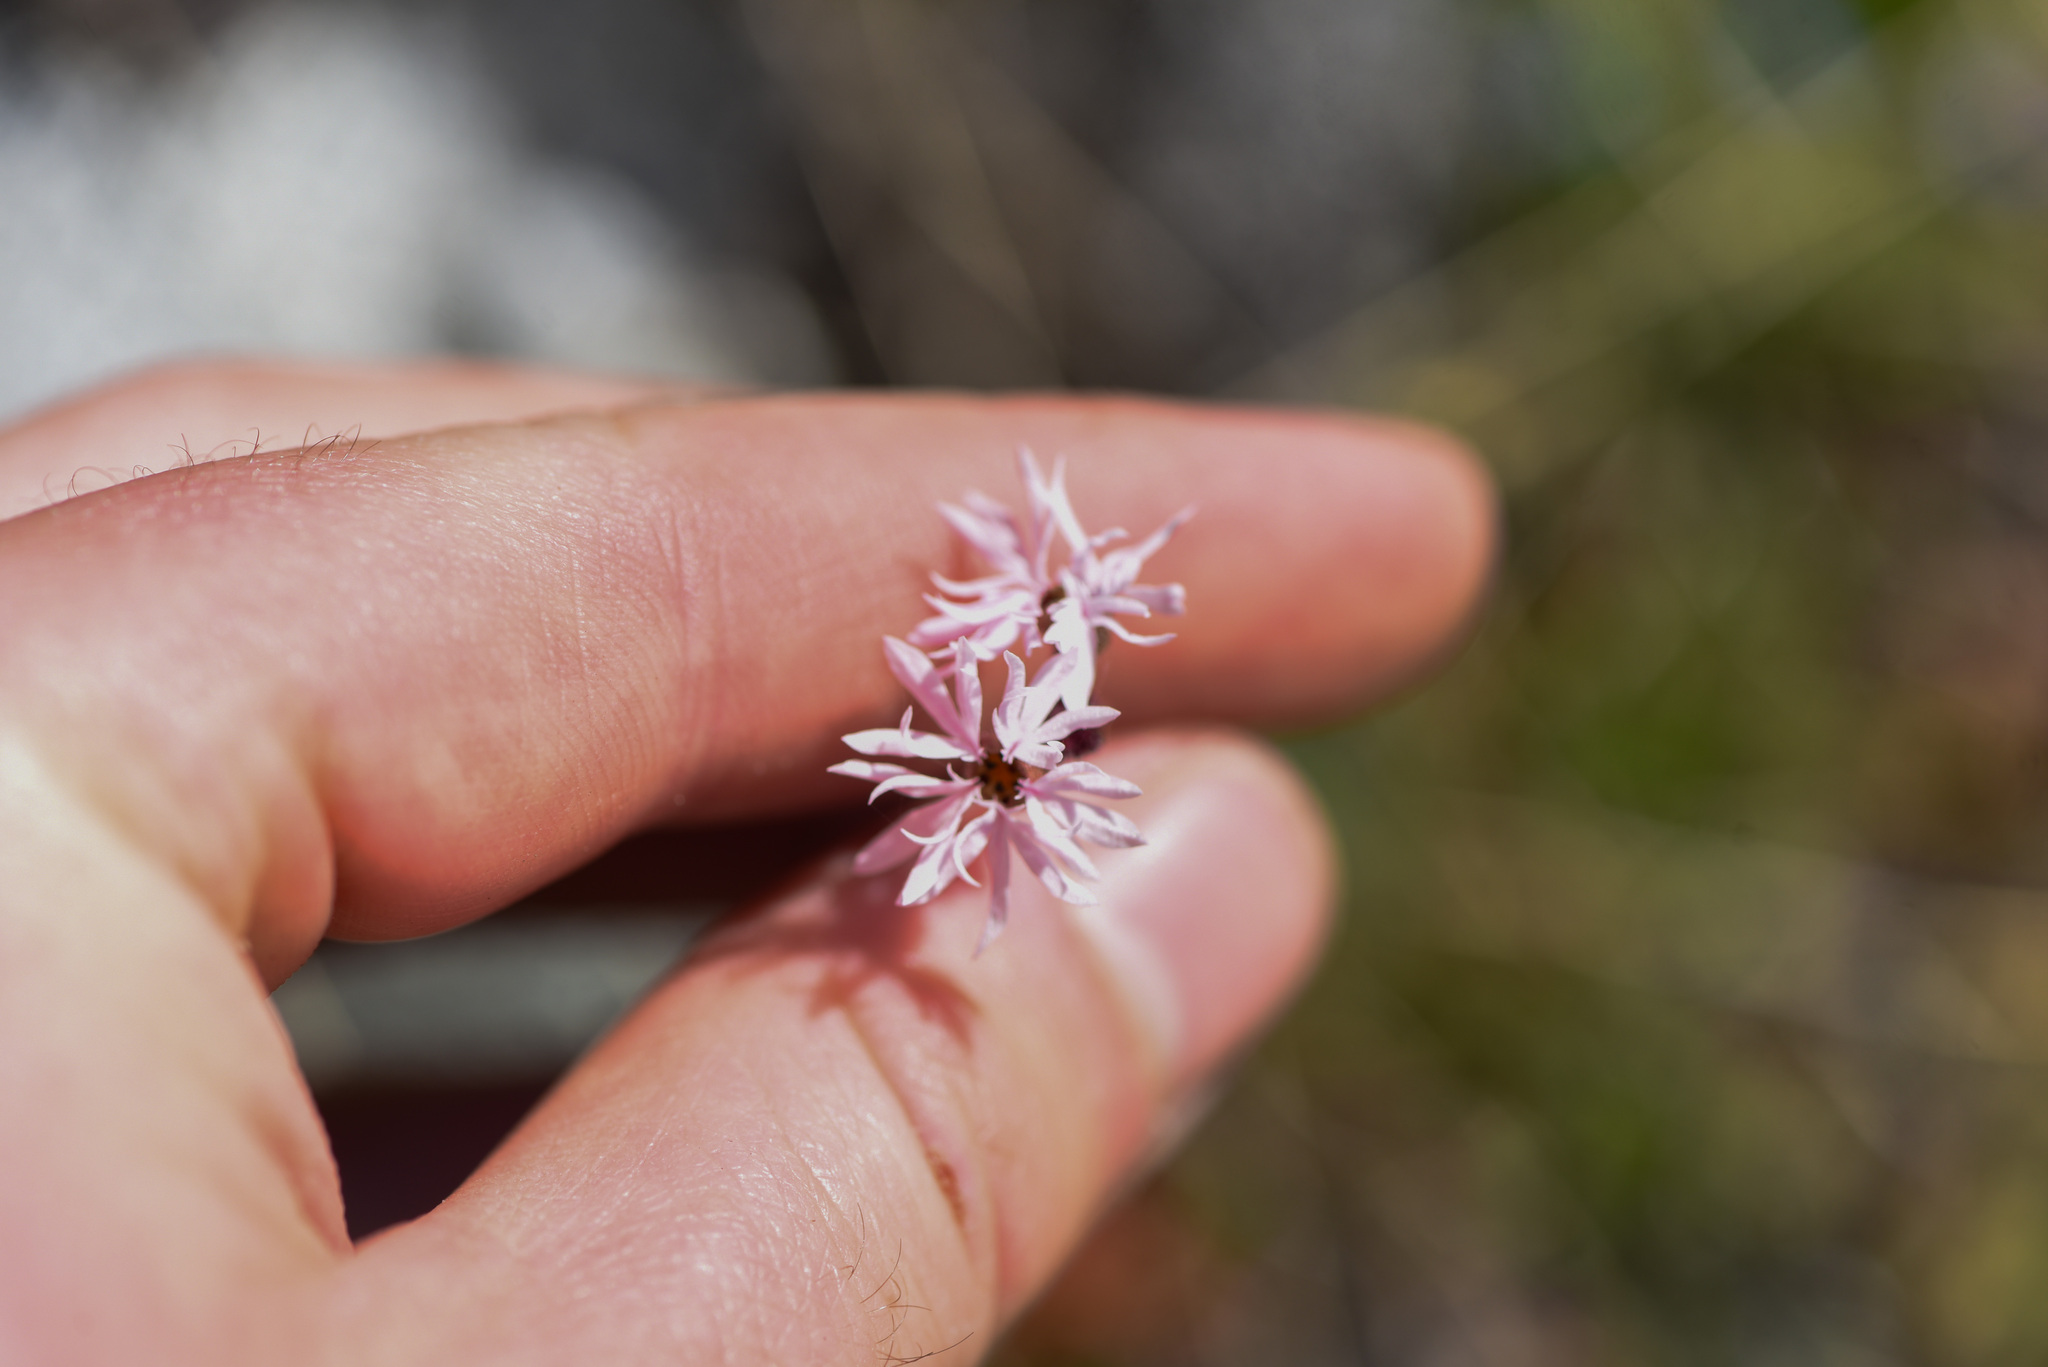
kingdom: Plantae
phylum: Tracheophyta
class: Magnoliopsida
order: Saxifragales
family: Saxifragaceae
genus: Lithophragma
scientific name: Lithophragma glabrum
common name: Bulbous prairie-star
